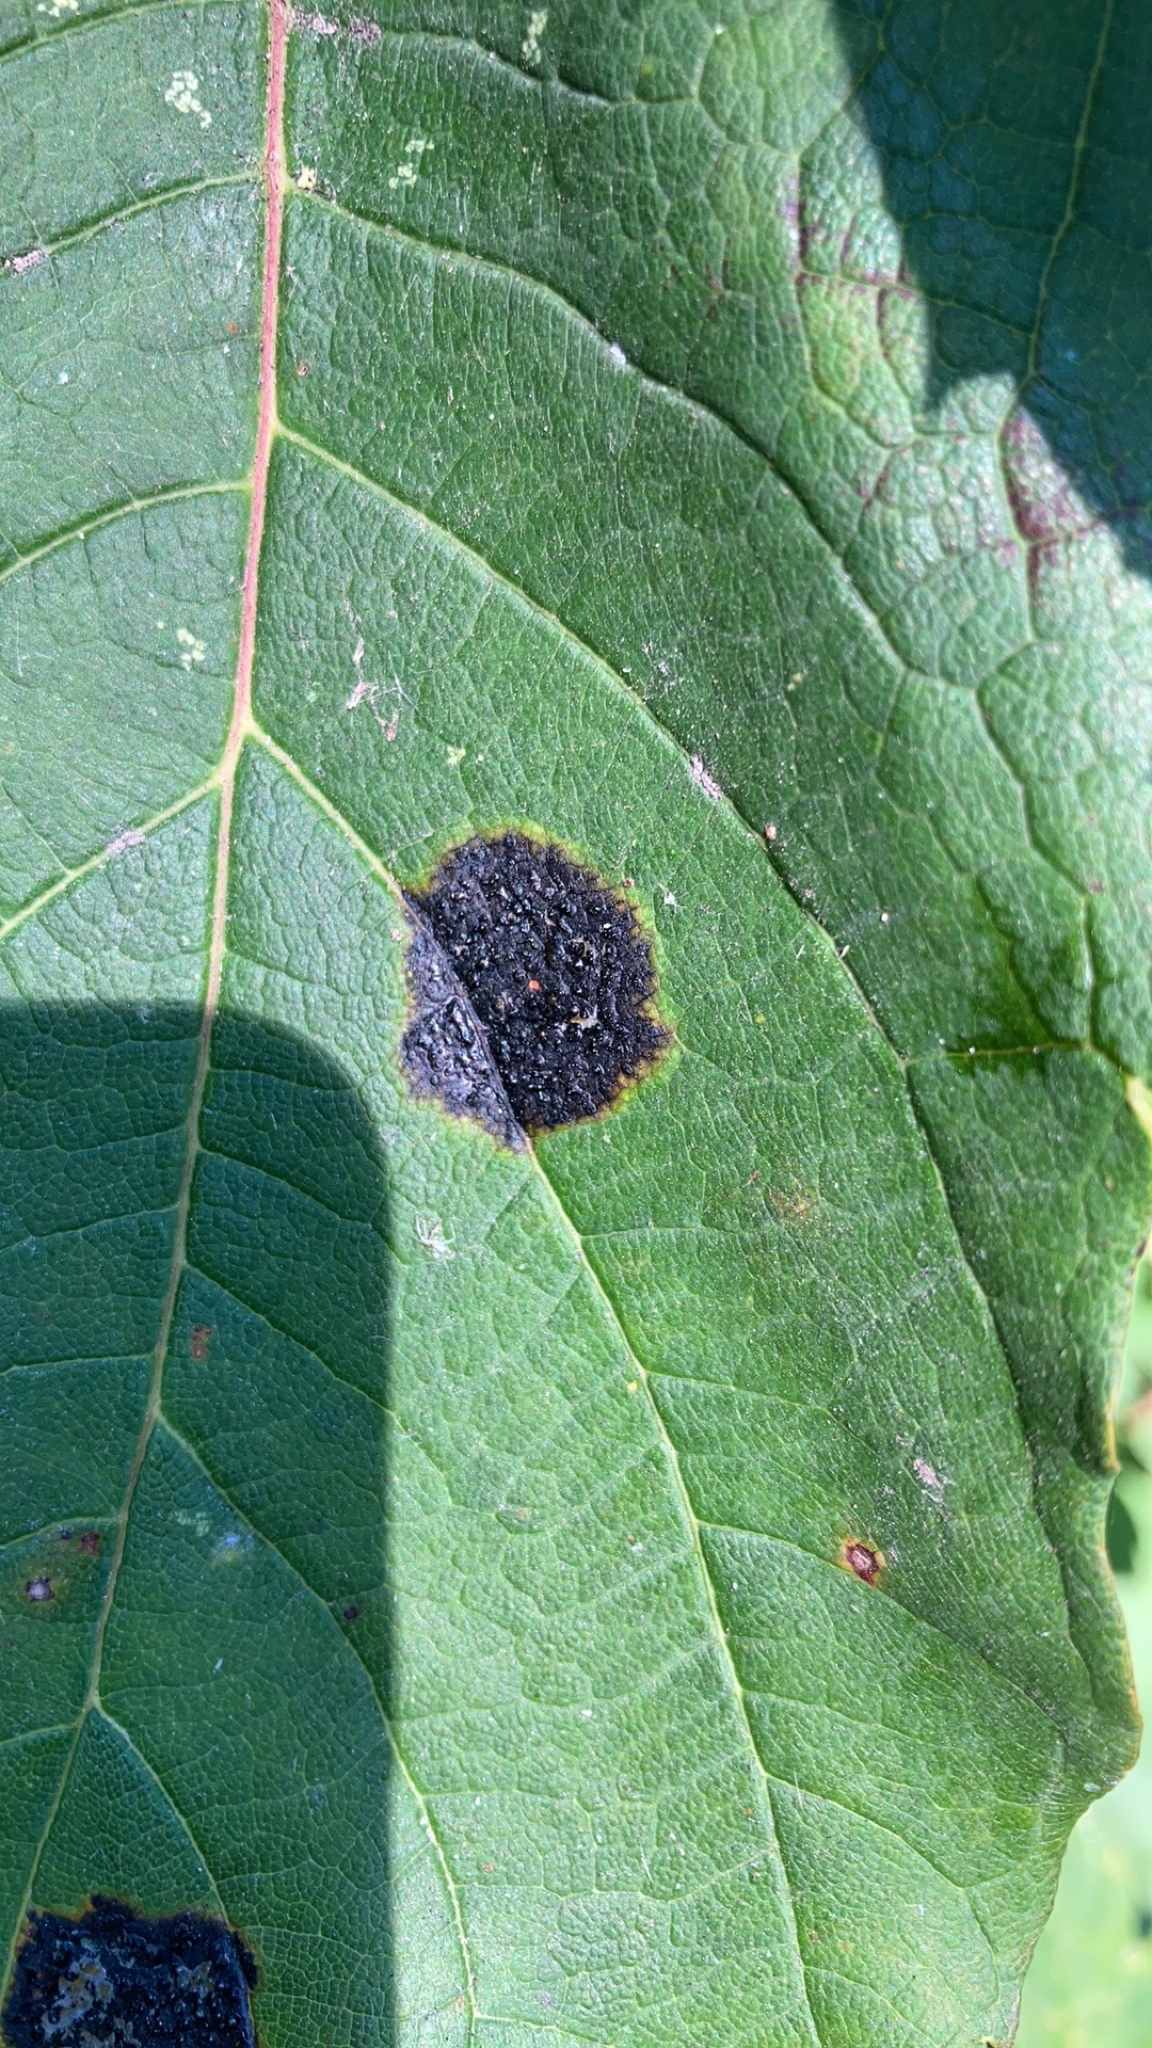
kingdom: Fungi
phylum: Ascomycota
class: Leotiomycetes
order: Rhytismatales
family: Rhytismataceae
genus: Rhytisma
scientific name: Rhytisma acerinum
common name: European tar spot
